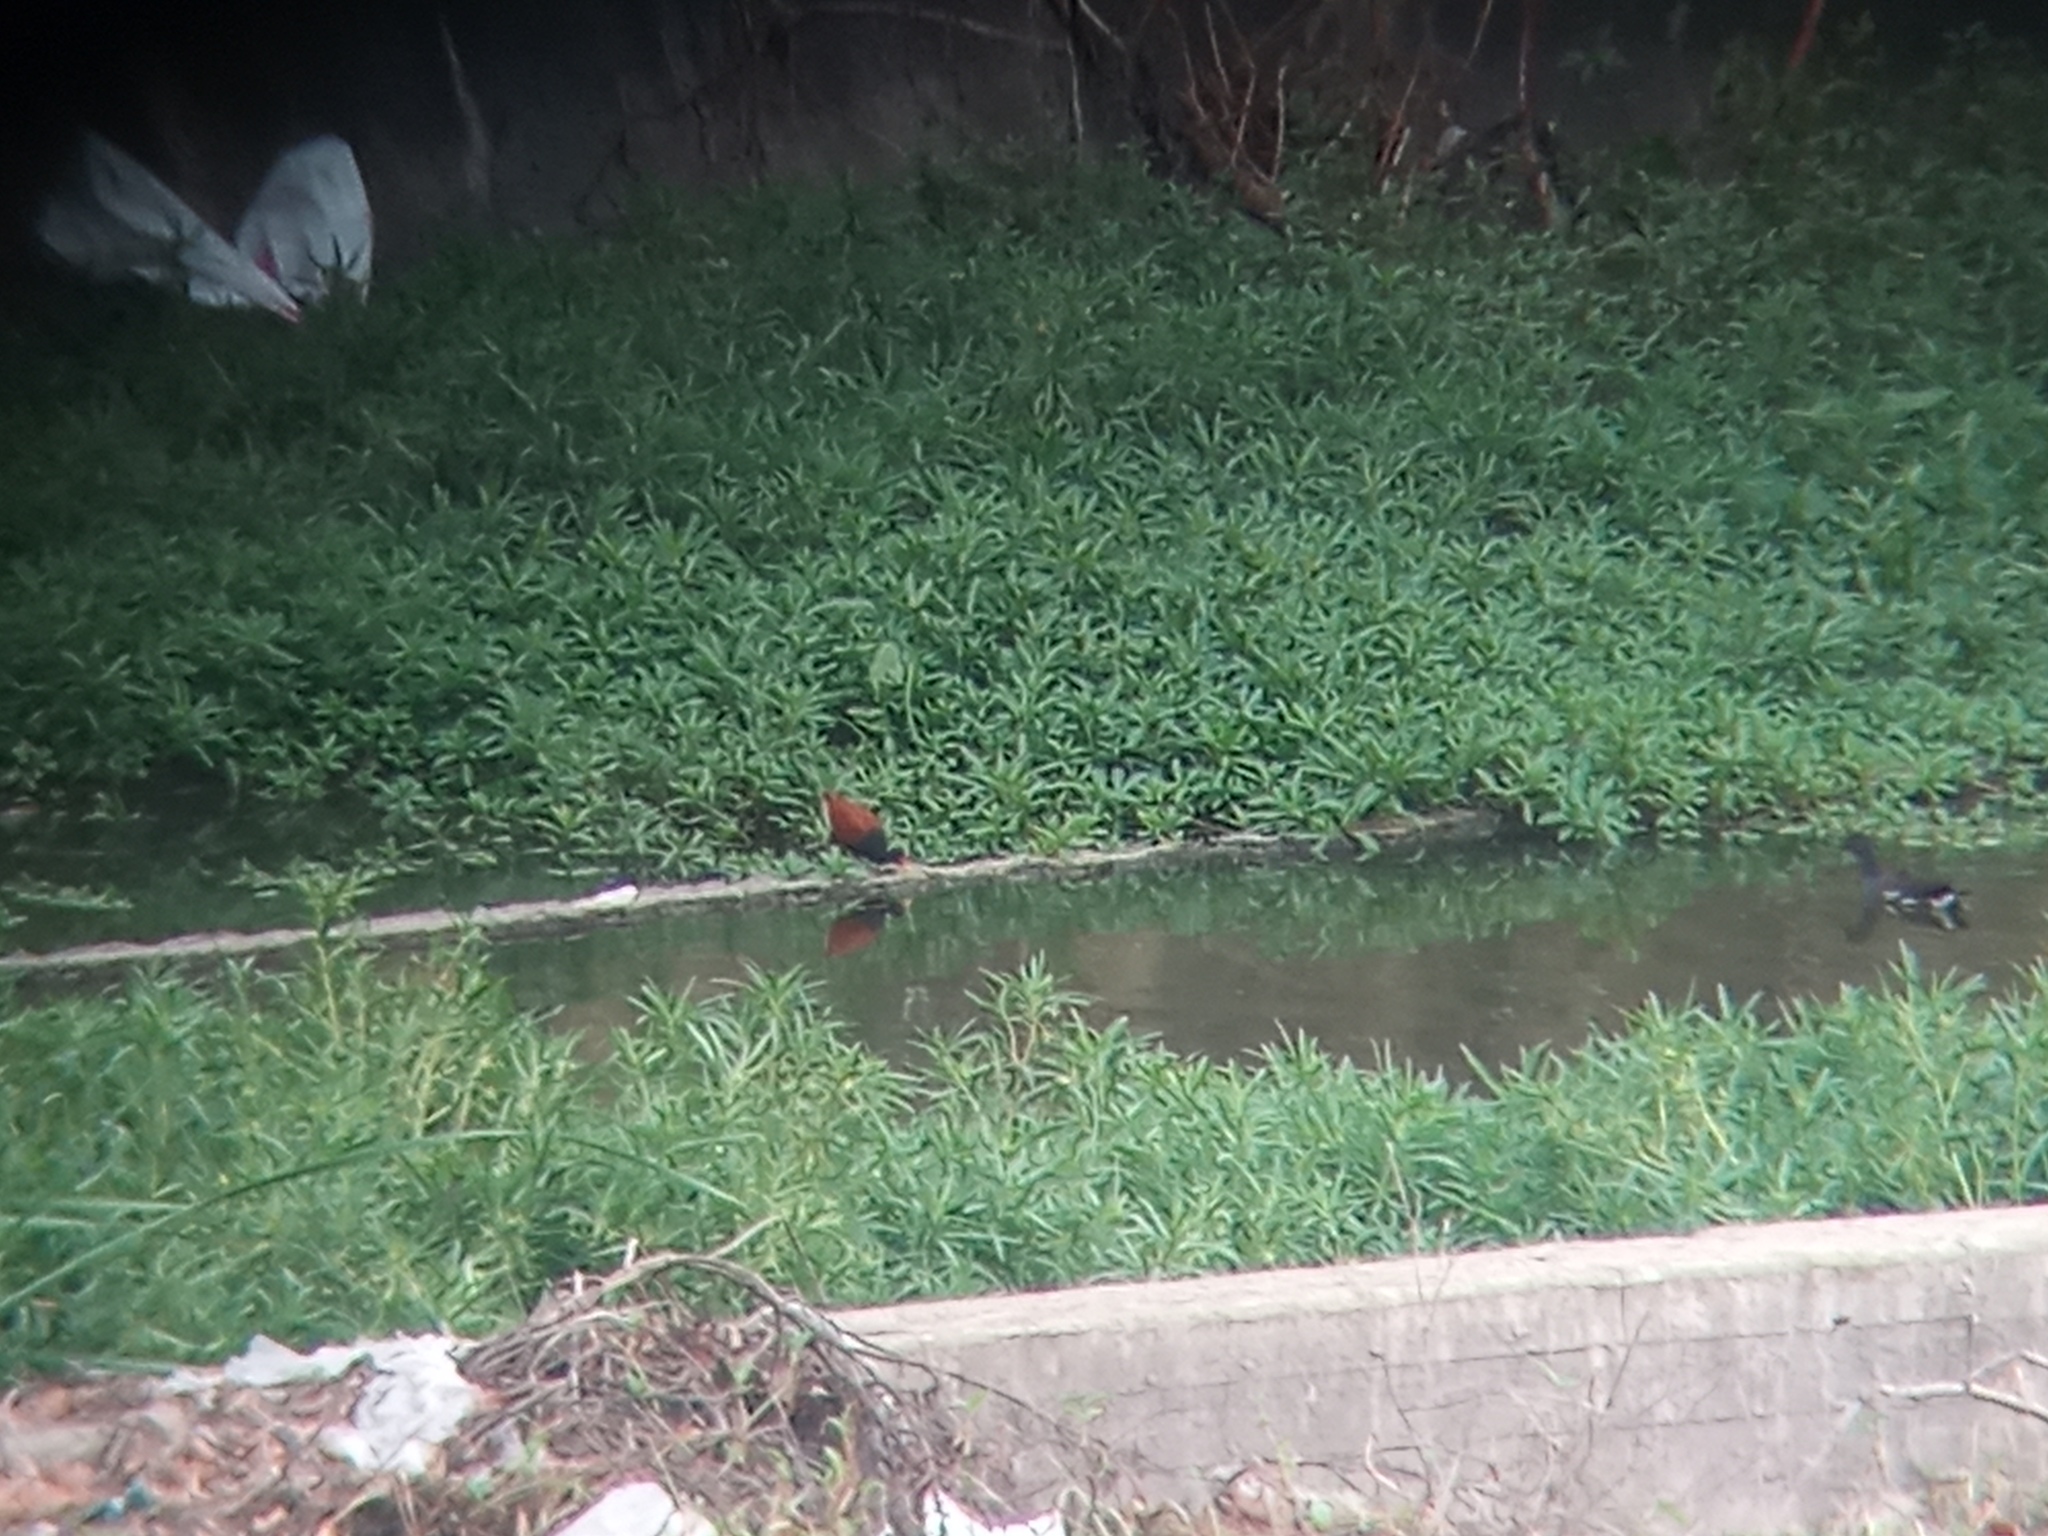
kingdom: Animalia
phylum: Chordata
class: Aves
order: Charadriiformes
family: Jacanidae
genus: Jacana
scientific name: Jacana jacana
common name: Wattled jacana
